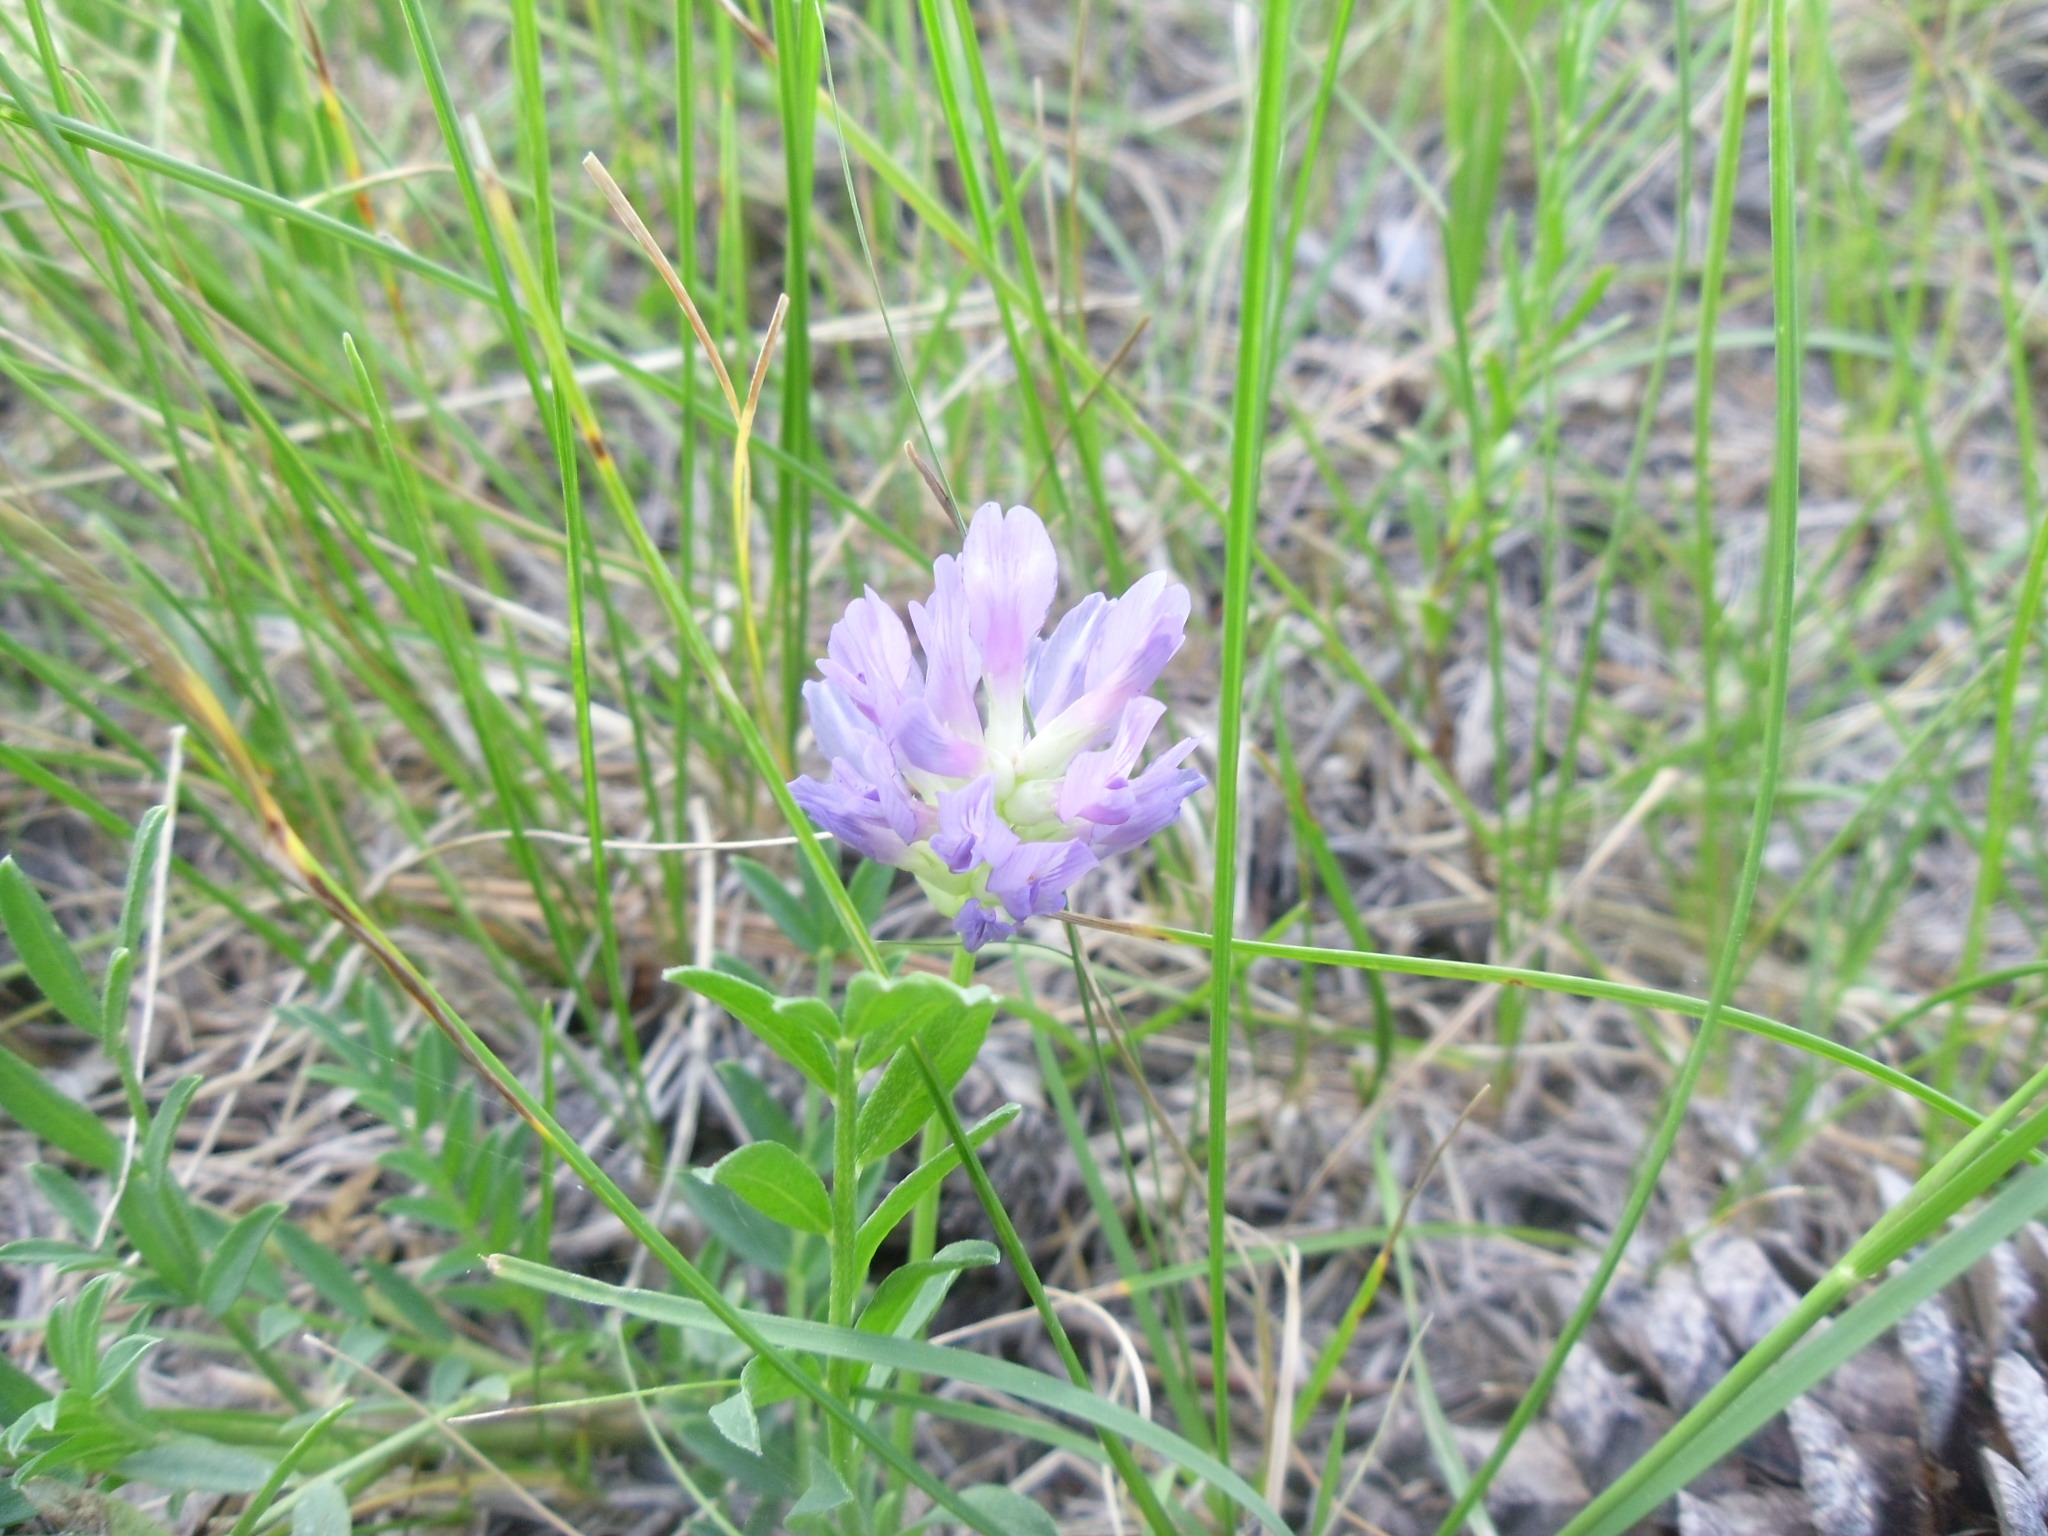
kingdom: Plantae
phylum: Tracheophyta
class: Magnoliopsida
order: Fabales
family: Fabaceae
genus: Astragalus
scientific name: Astragalus agrestis
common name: Field milk-vetch
